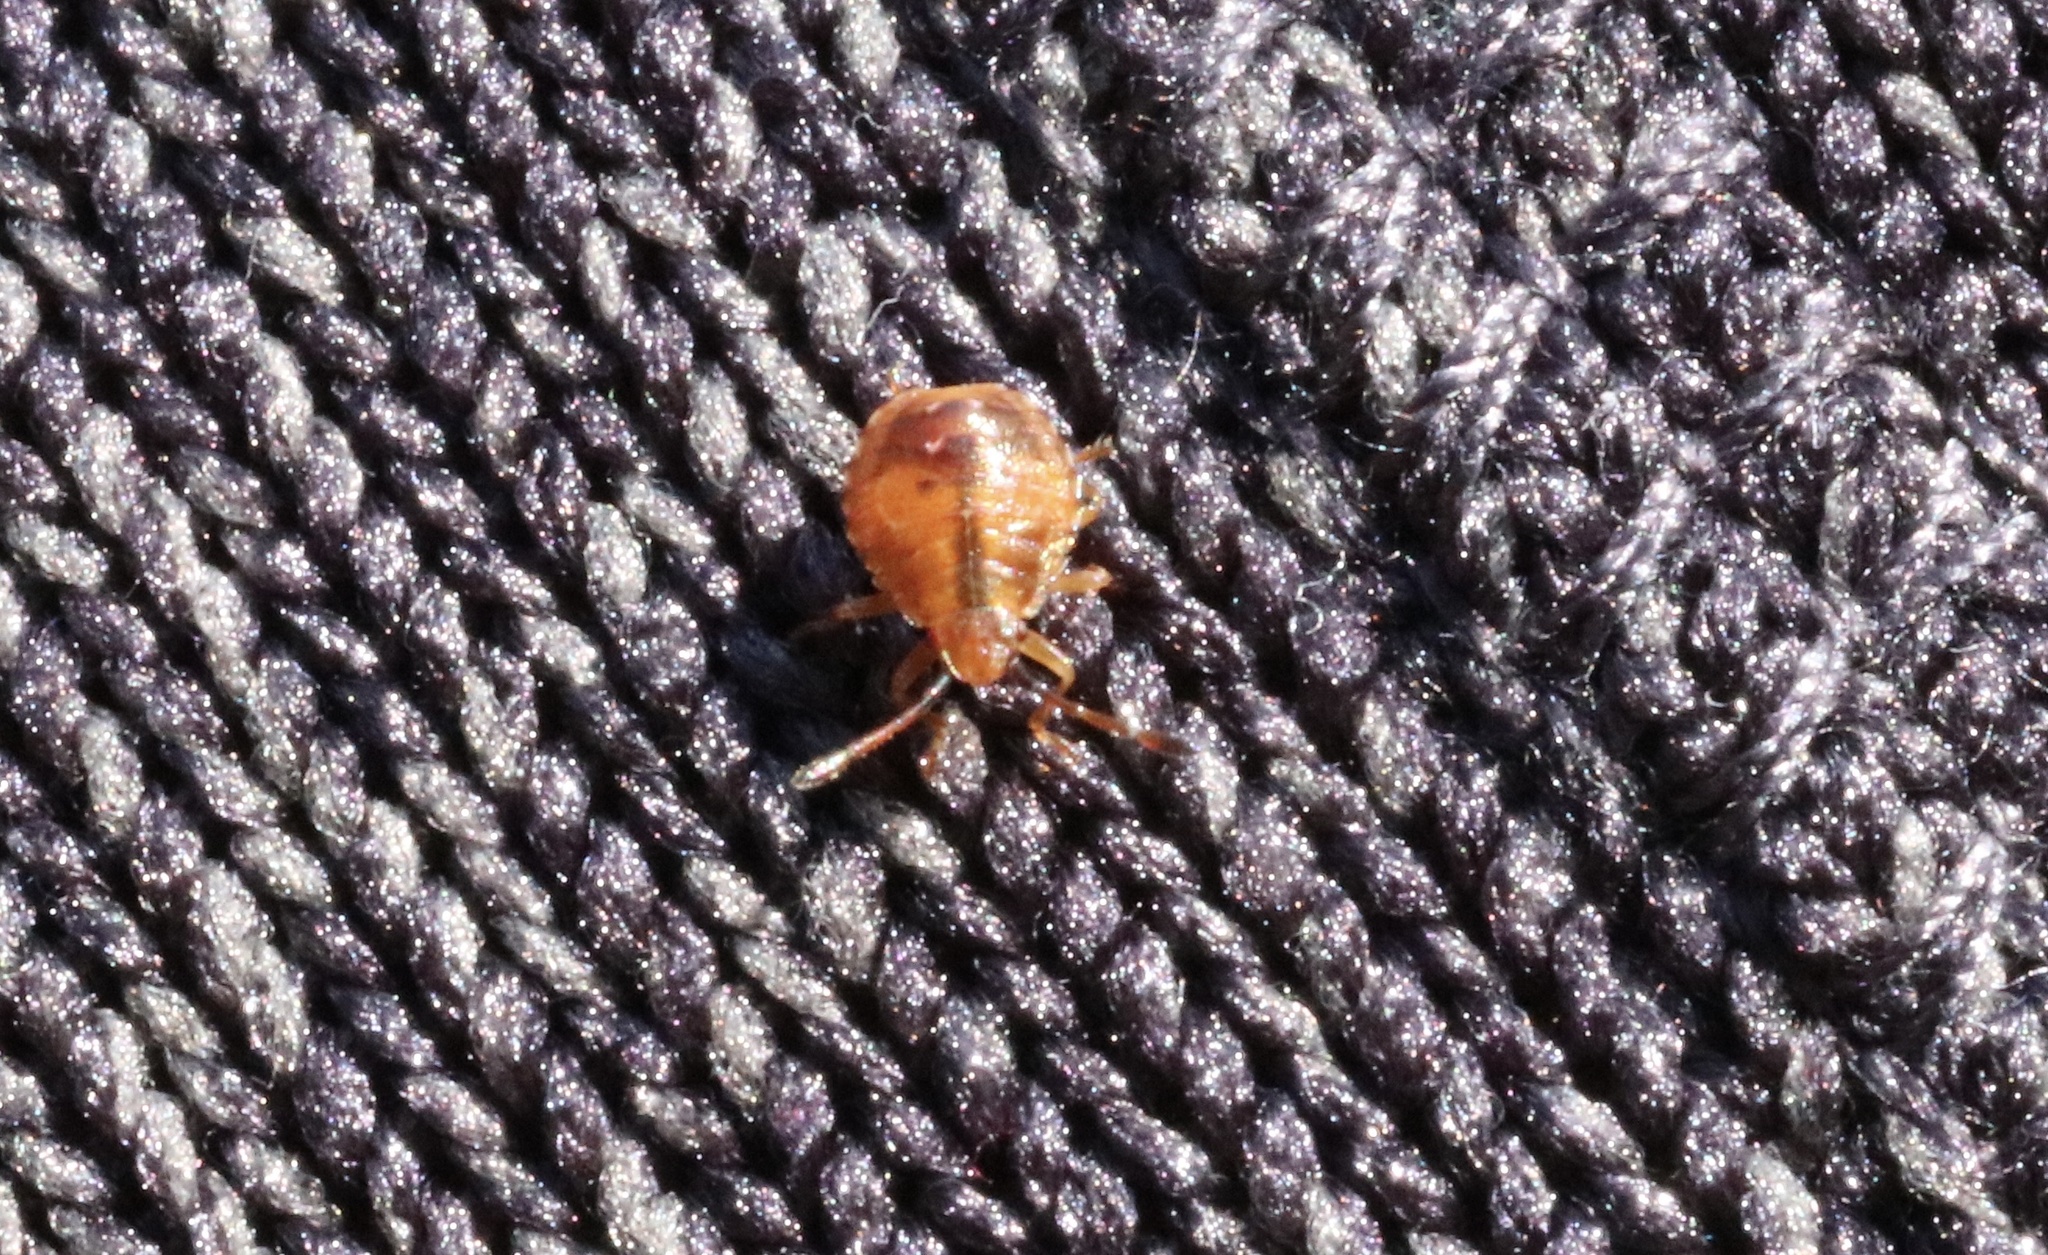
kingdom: Animalia
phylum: Arthropoda
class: Insecta
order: Hemiptera
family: Acanthosomatidae
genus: Planois
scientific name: Planois gayi
